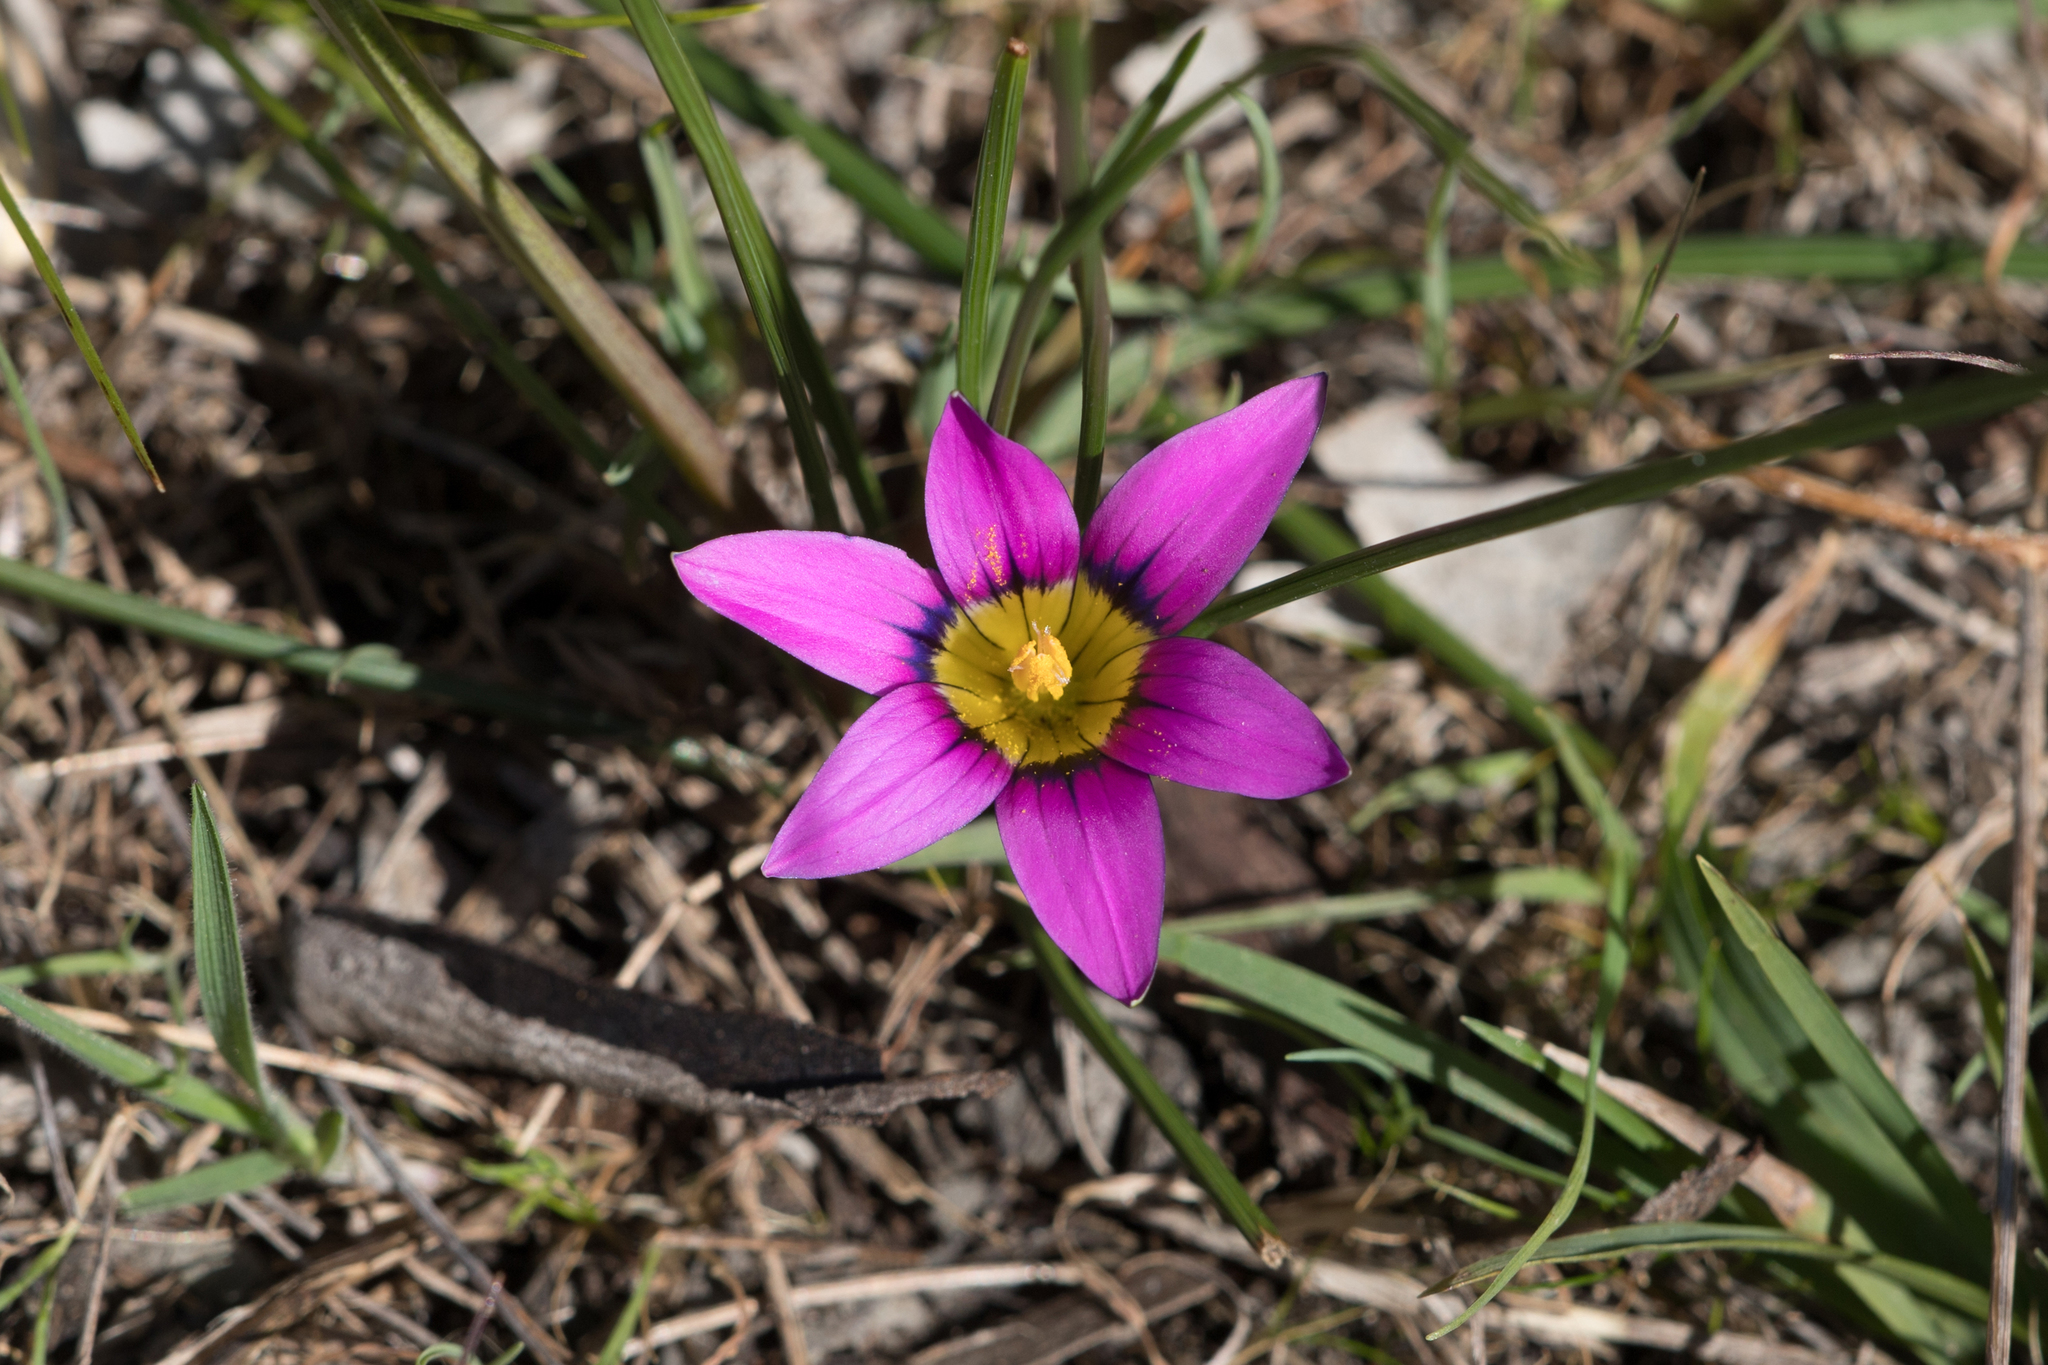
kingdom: Plantae
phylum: Tracheophyta
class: Liliopsida
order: Asparagales
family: Iridaceae
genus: Romulea
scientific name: Romulea rosea
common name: Oniongrass
